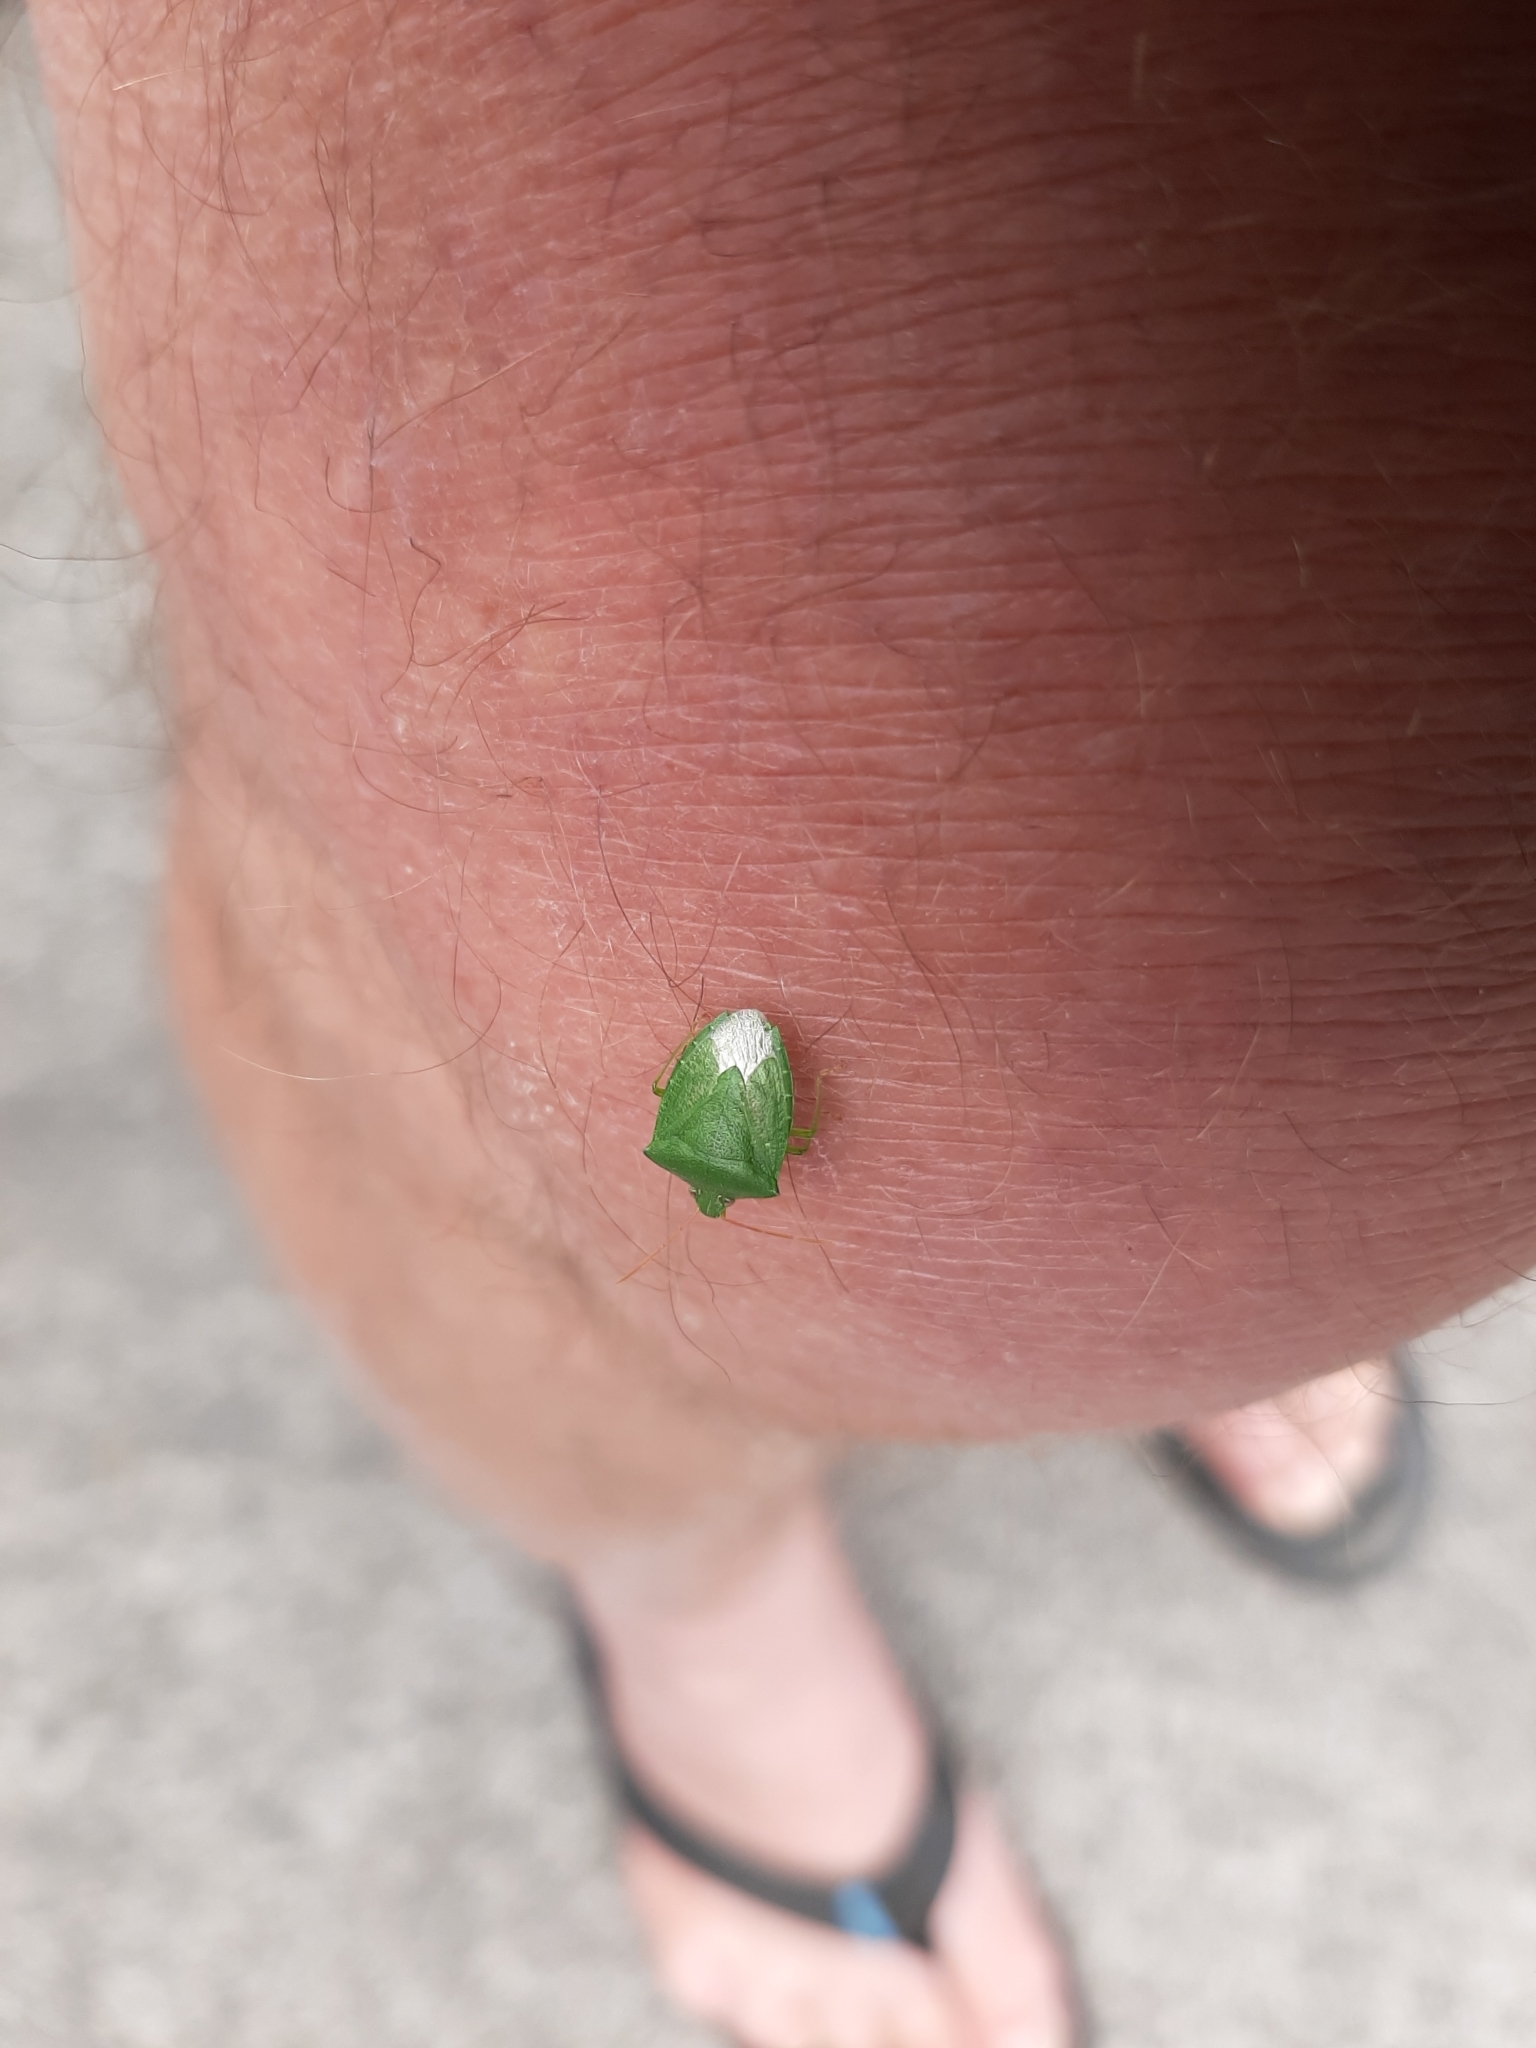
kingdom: Animalia
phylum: Arthropoda
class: Insecta
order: Hemiptera
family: Pentatomidae
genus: Cuspicona
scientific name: Cuspicona simplex
